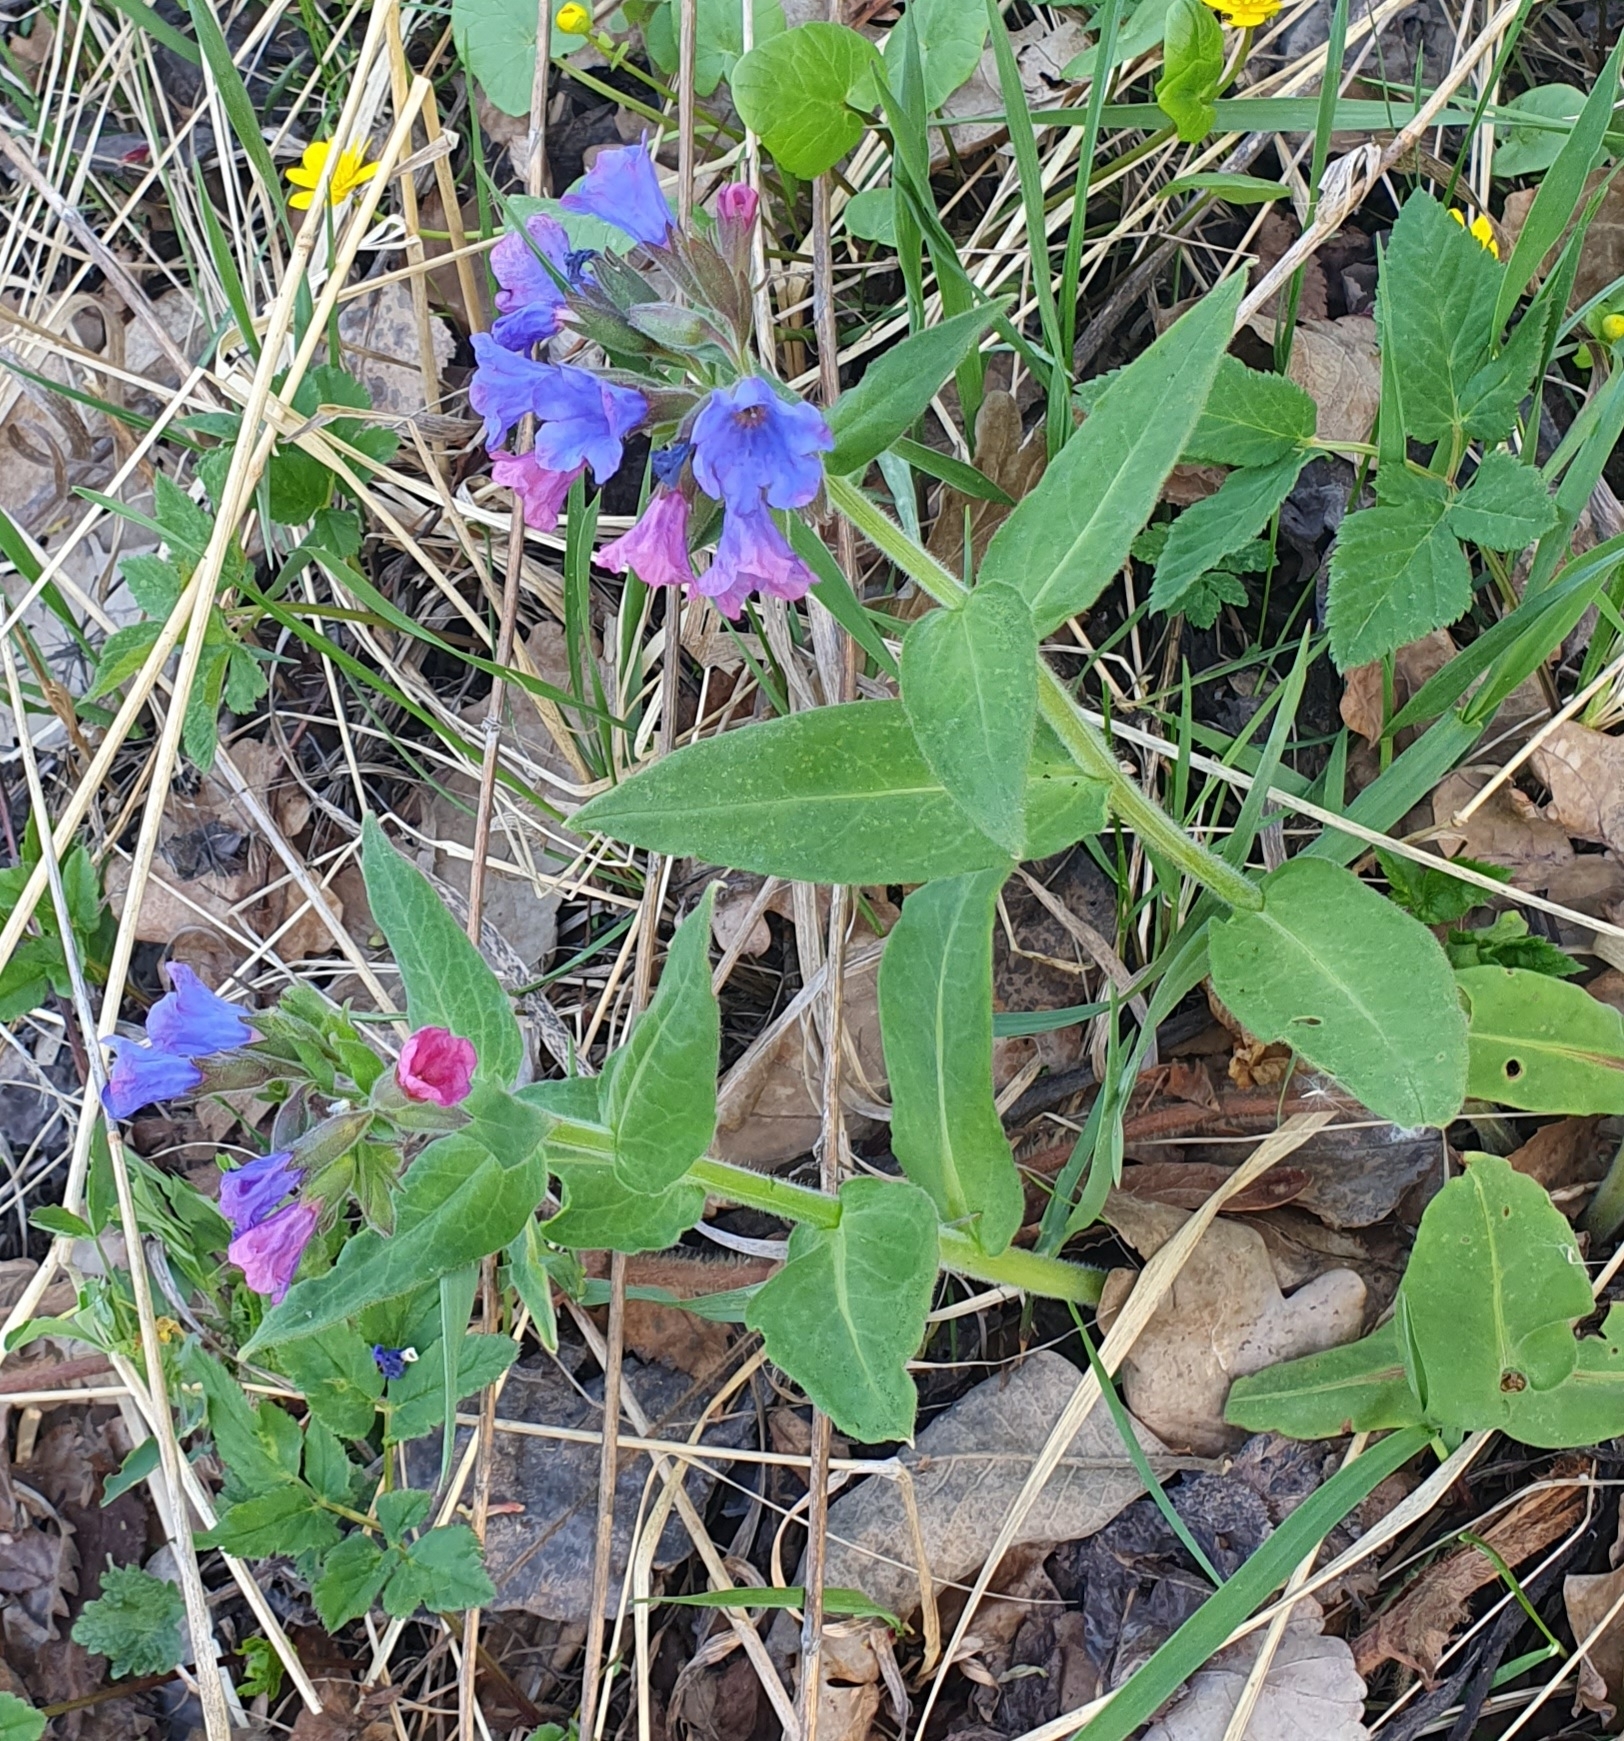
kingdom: Plantae
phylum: Tracheophyta
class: Magnoliopsida
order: Boraginales
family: Boraginaceae
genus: Pulmonaria
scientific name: Pulmonaria angustifolia
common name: Blue cowslip
